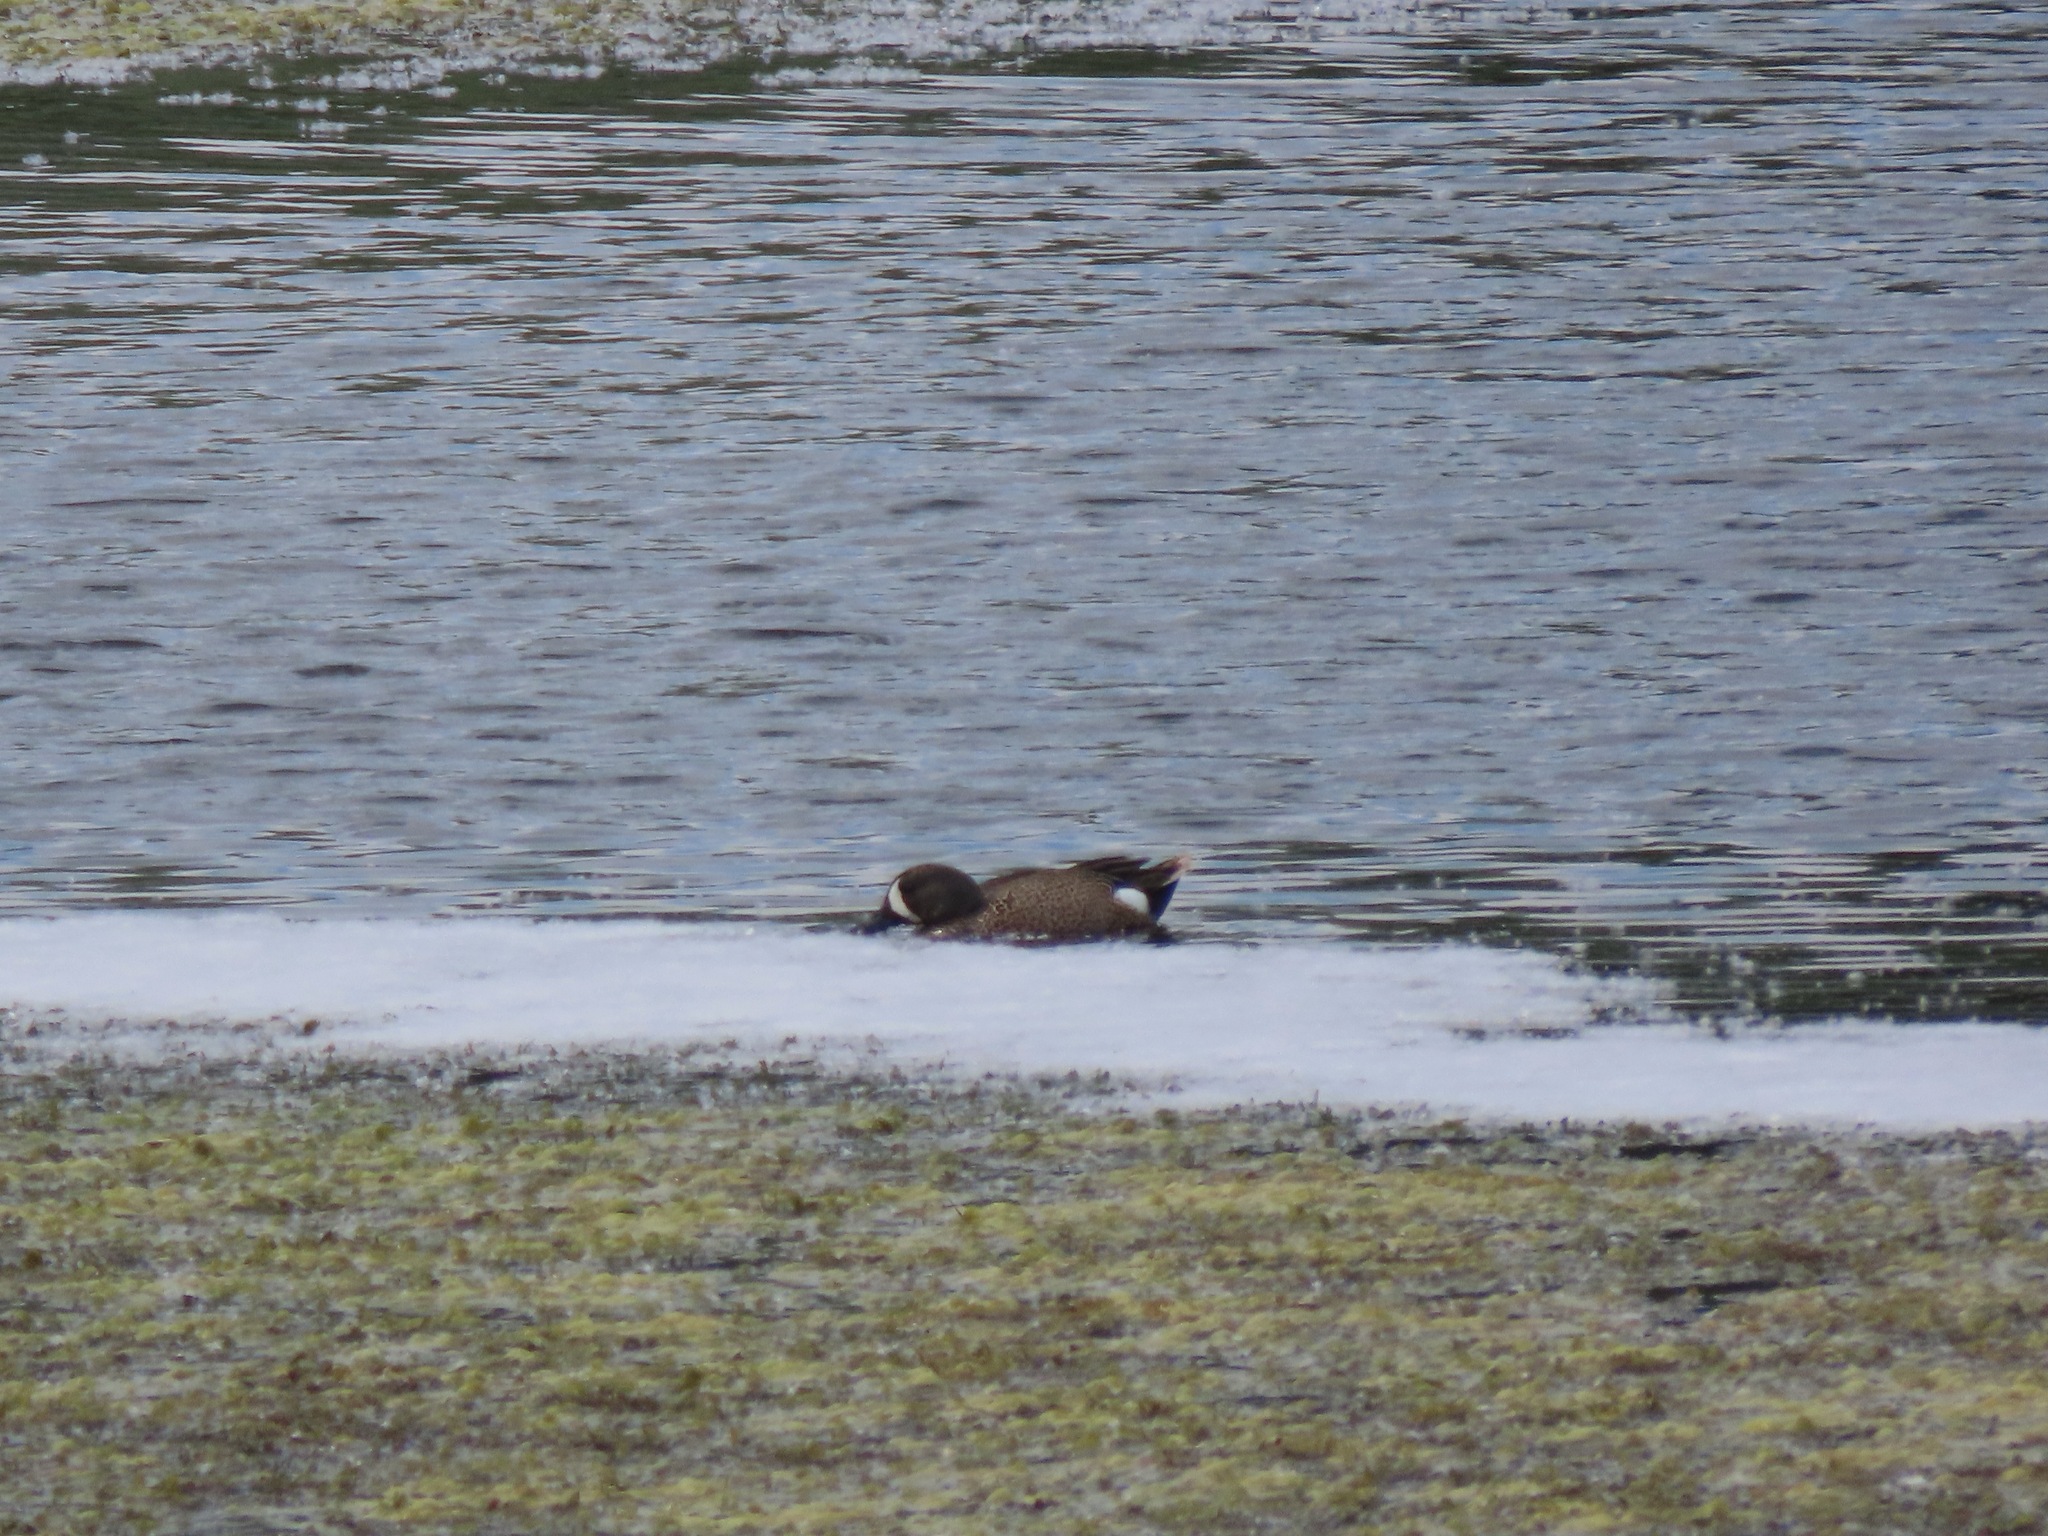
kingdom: Animalia
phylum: Chordata
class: Aves
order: Anseriformes
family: Anatidae
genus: Spatula
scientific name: Spatula discors
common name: Blue-winged teal
